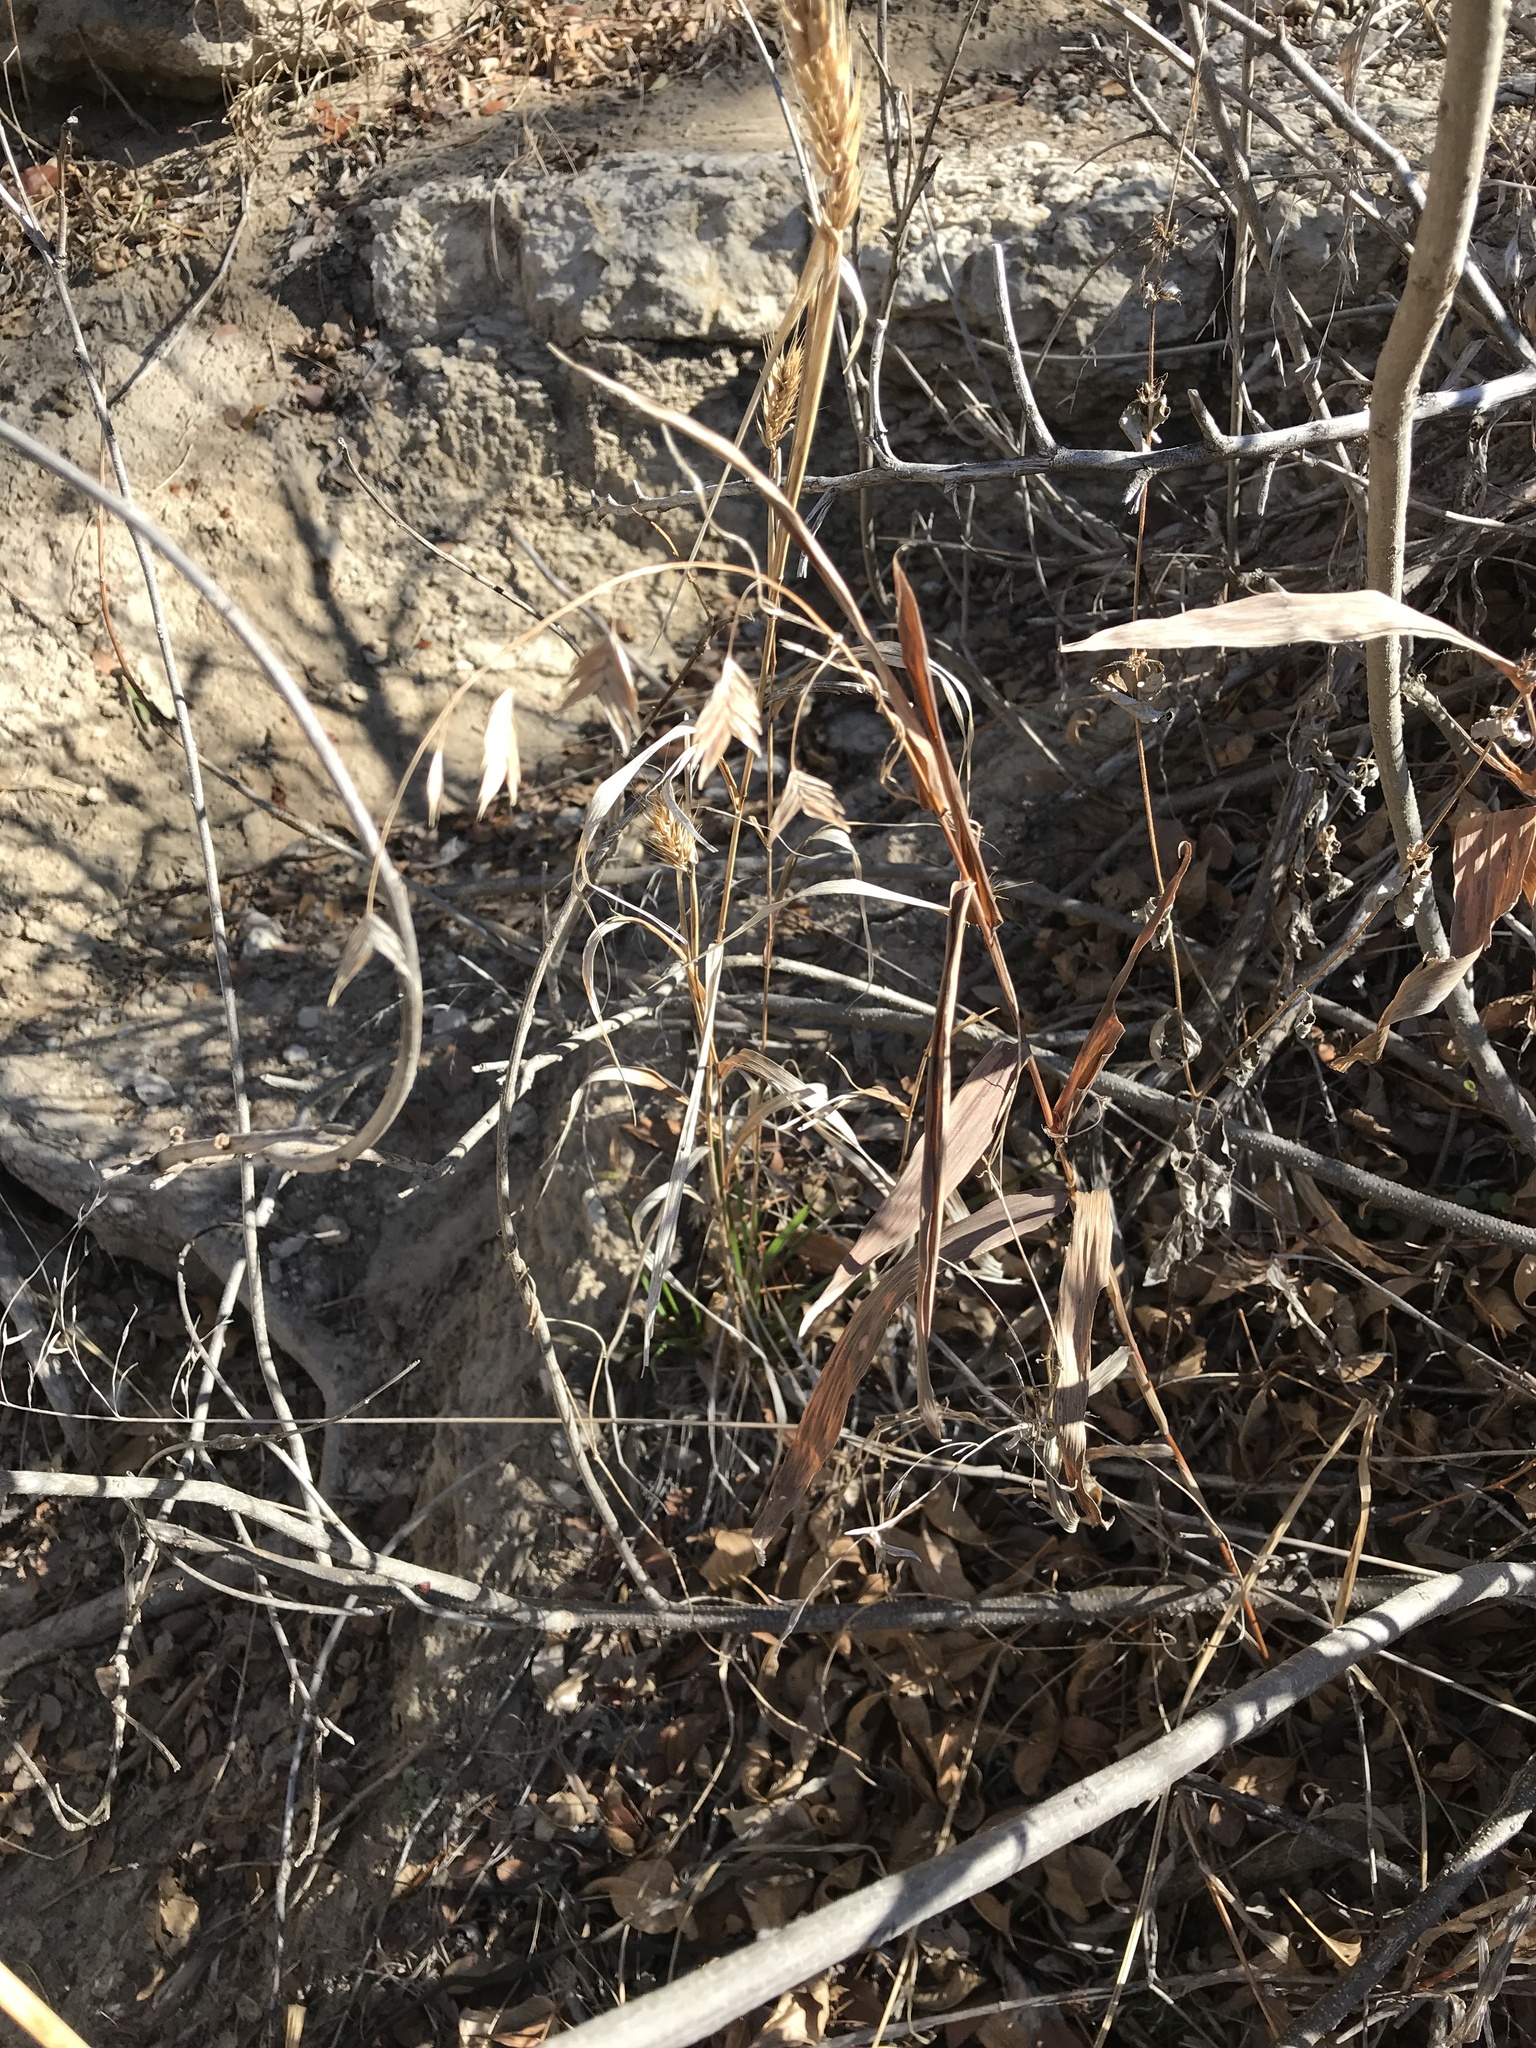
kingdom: Plantae
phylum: Tracheophyta
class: Liliopsida
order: Poales
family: Poaceae
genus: Chasmanthium
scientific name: Chasmanthium latifolium
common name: Broad-leaved chasmanthium
